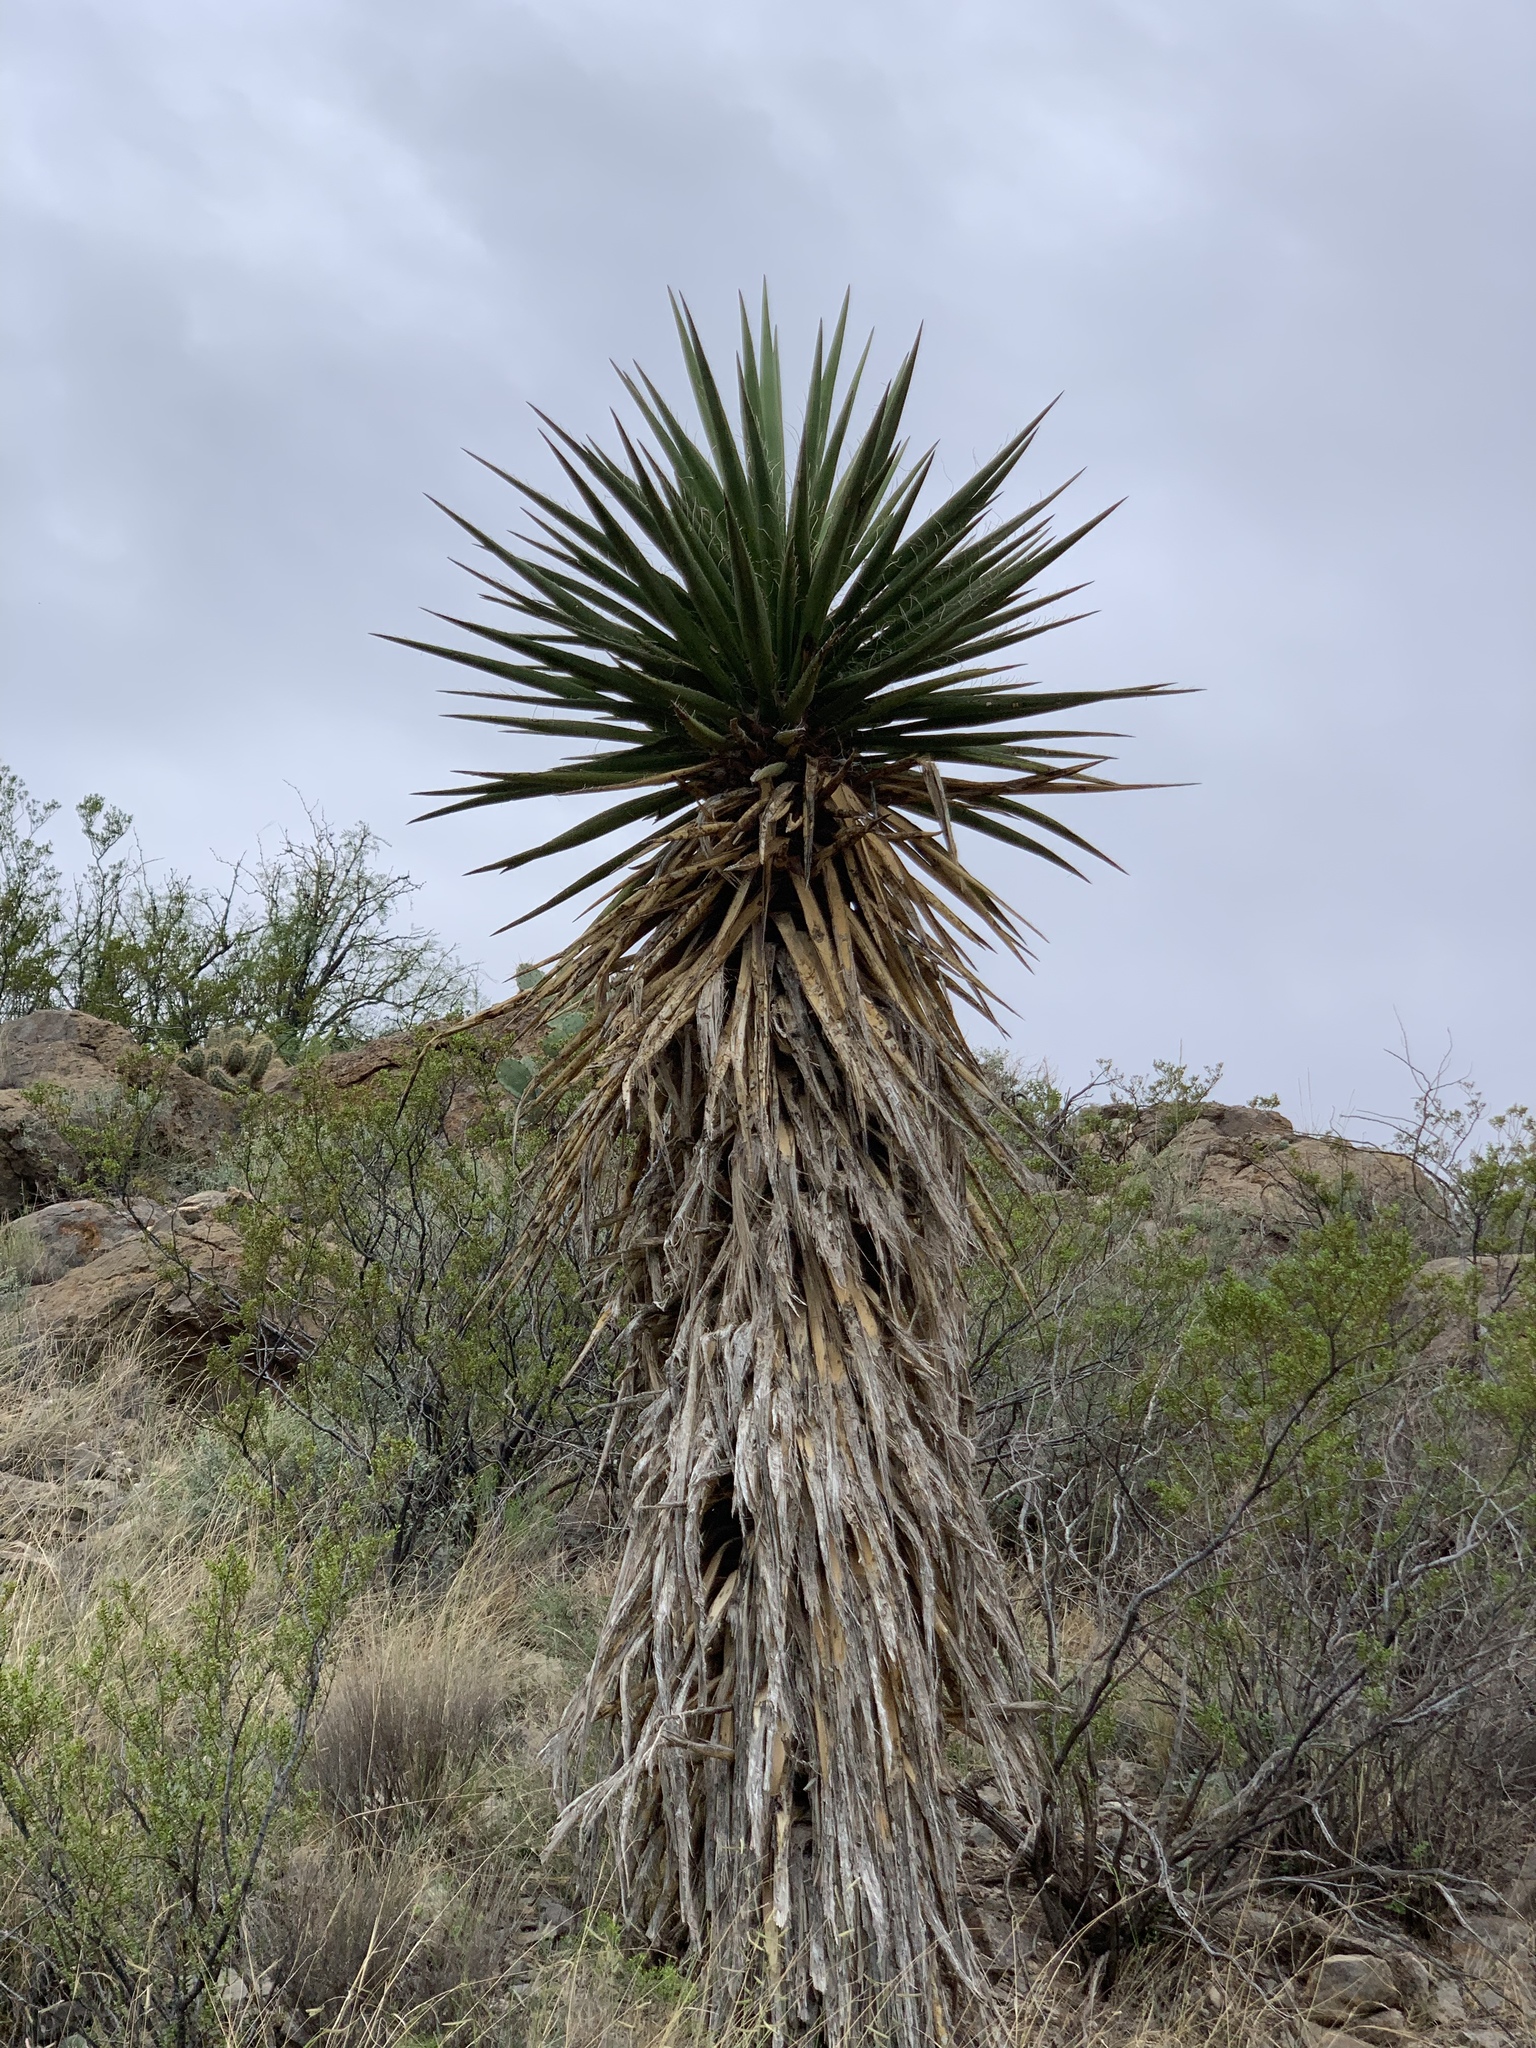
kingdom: Plantae
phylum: Tracheophyta
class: Liliopsida
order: Asparagales
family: Asparagaceae
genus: Yucca
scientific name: Yucca treculiana
